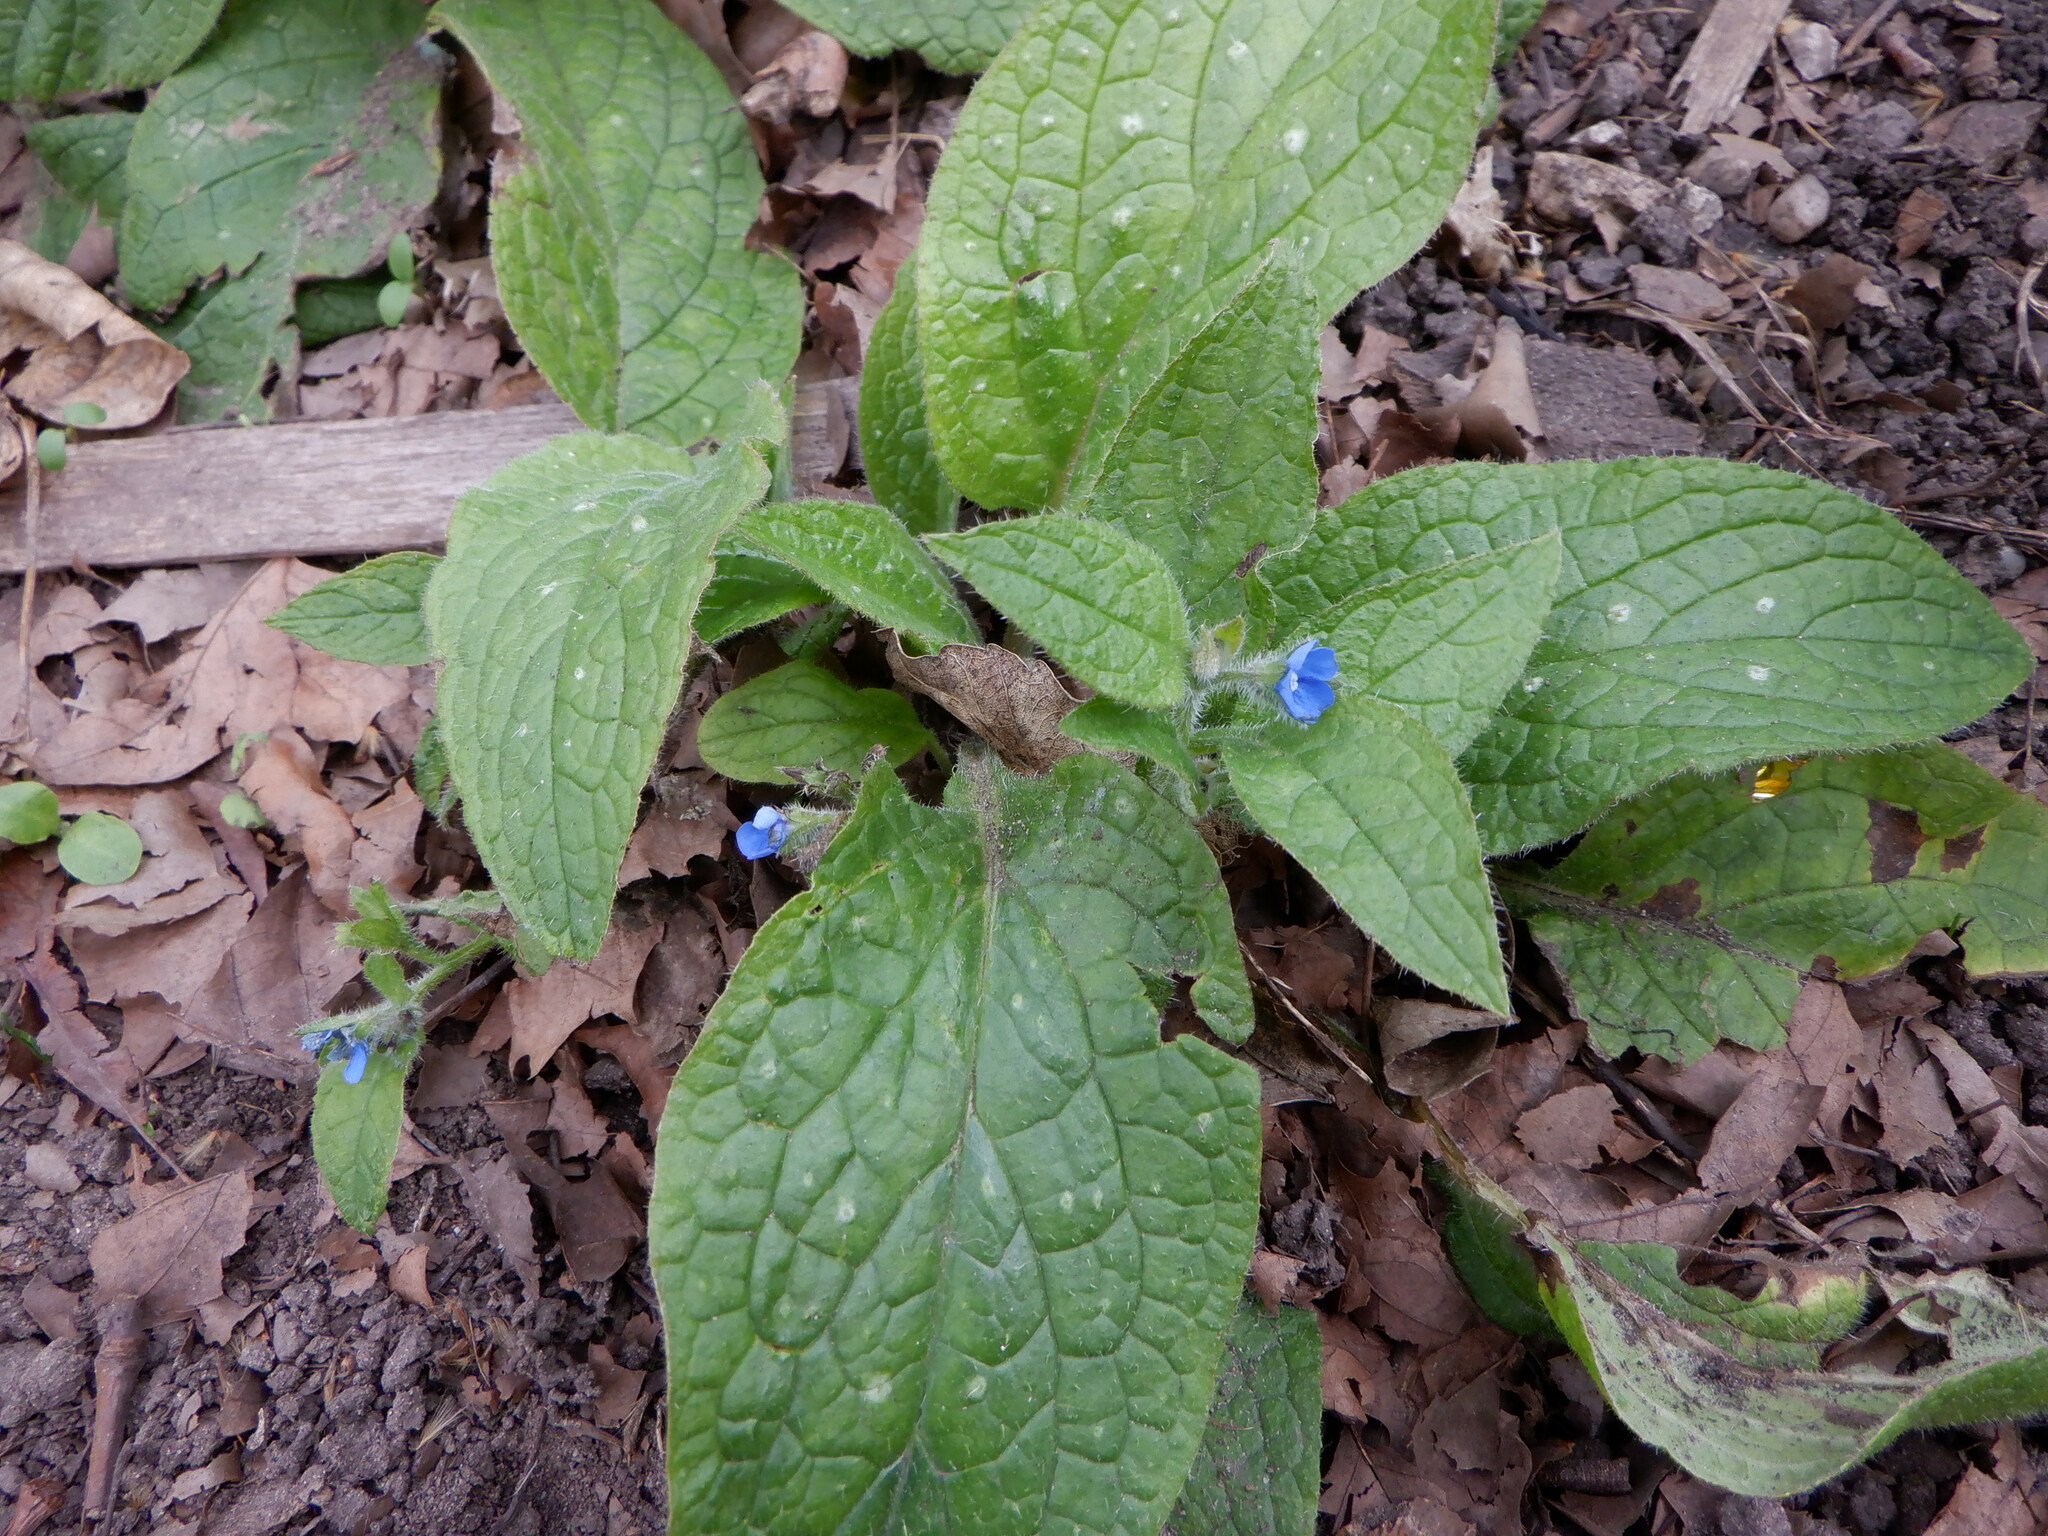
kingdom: Plantae
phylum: Tracheophyta
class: Magnoliopsida
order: Boraginales
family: Boraginaceae
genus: Pentaglottis
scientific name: Pentaglottis sempervirens
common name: Green alkanet
